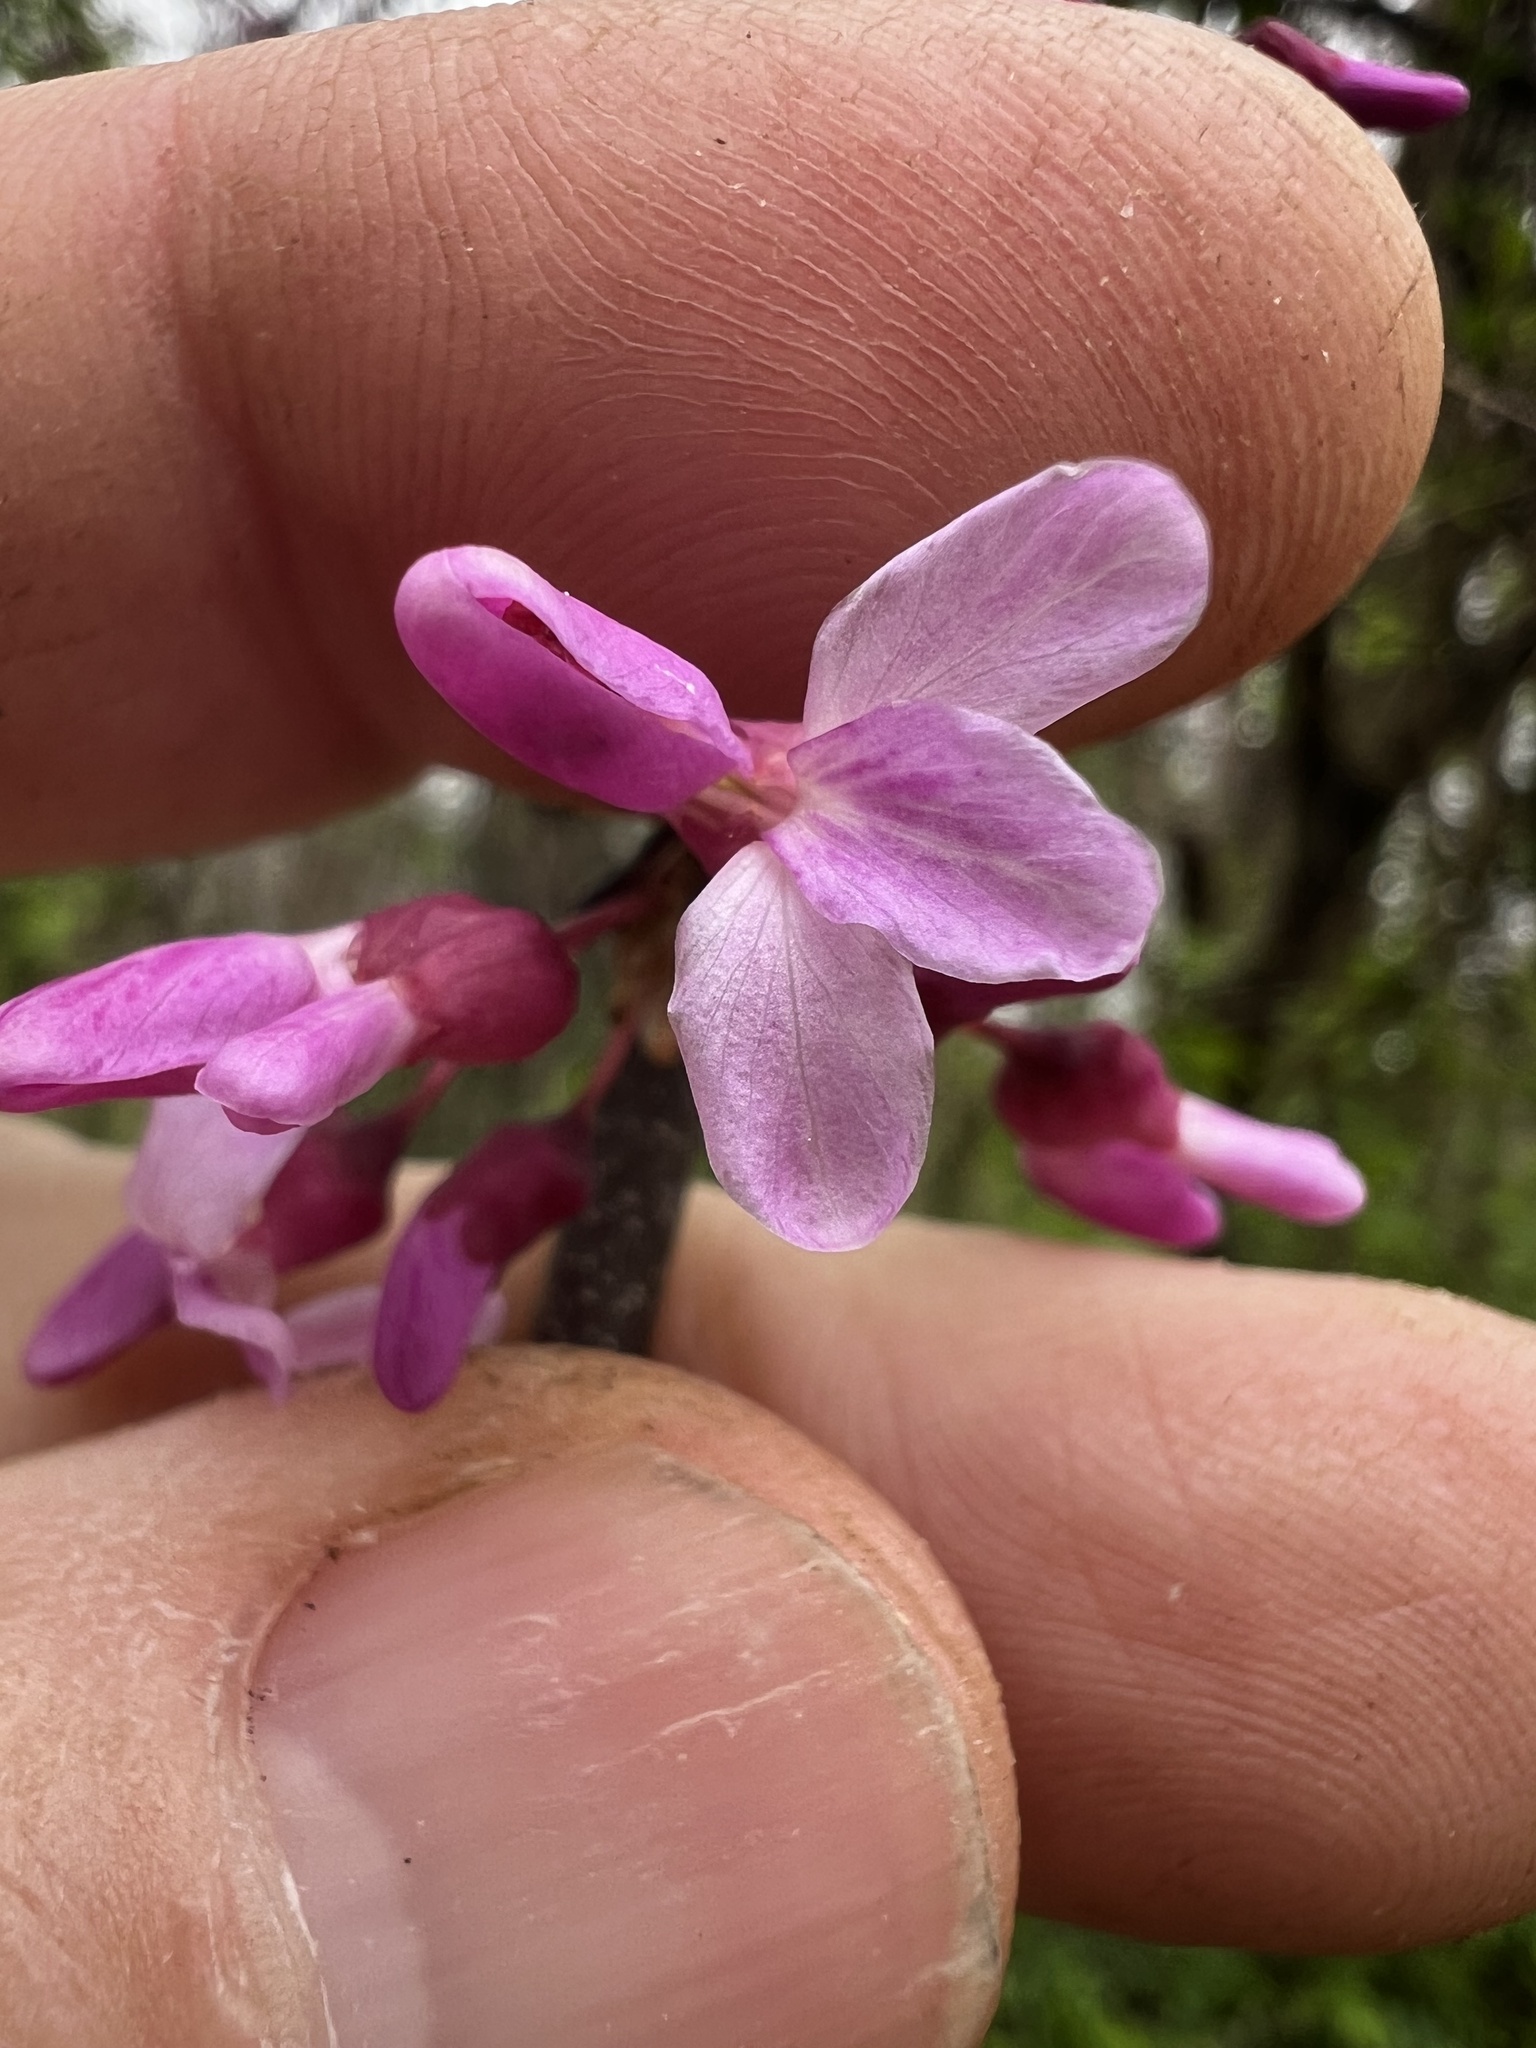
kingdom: Plantae
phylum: Tracheophyta
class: Magnoliopsida
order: Fabales
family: Fabaceae
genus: Cercis
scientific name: Cercis canadensis
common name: Eastern redbud
